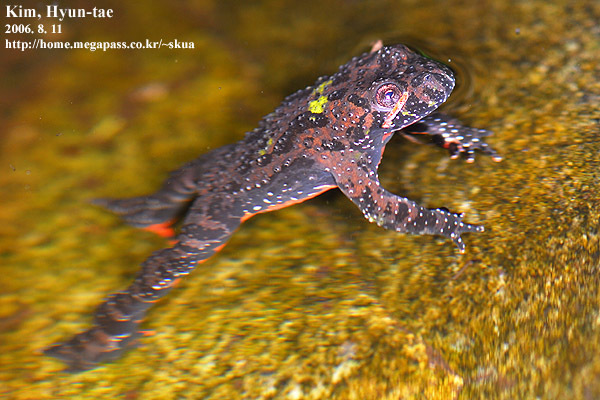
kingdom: Animalia
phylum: Chordata
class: Amphibia
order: Anura
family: Bombinatoridae
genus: Bombina
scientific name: Bombina orientalis
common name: Oriental firebelly toad
